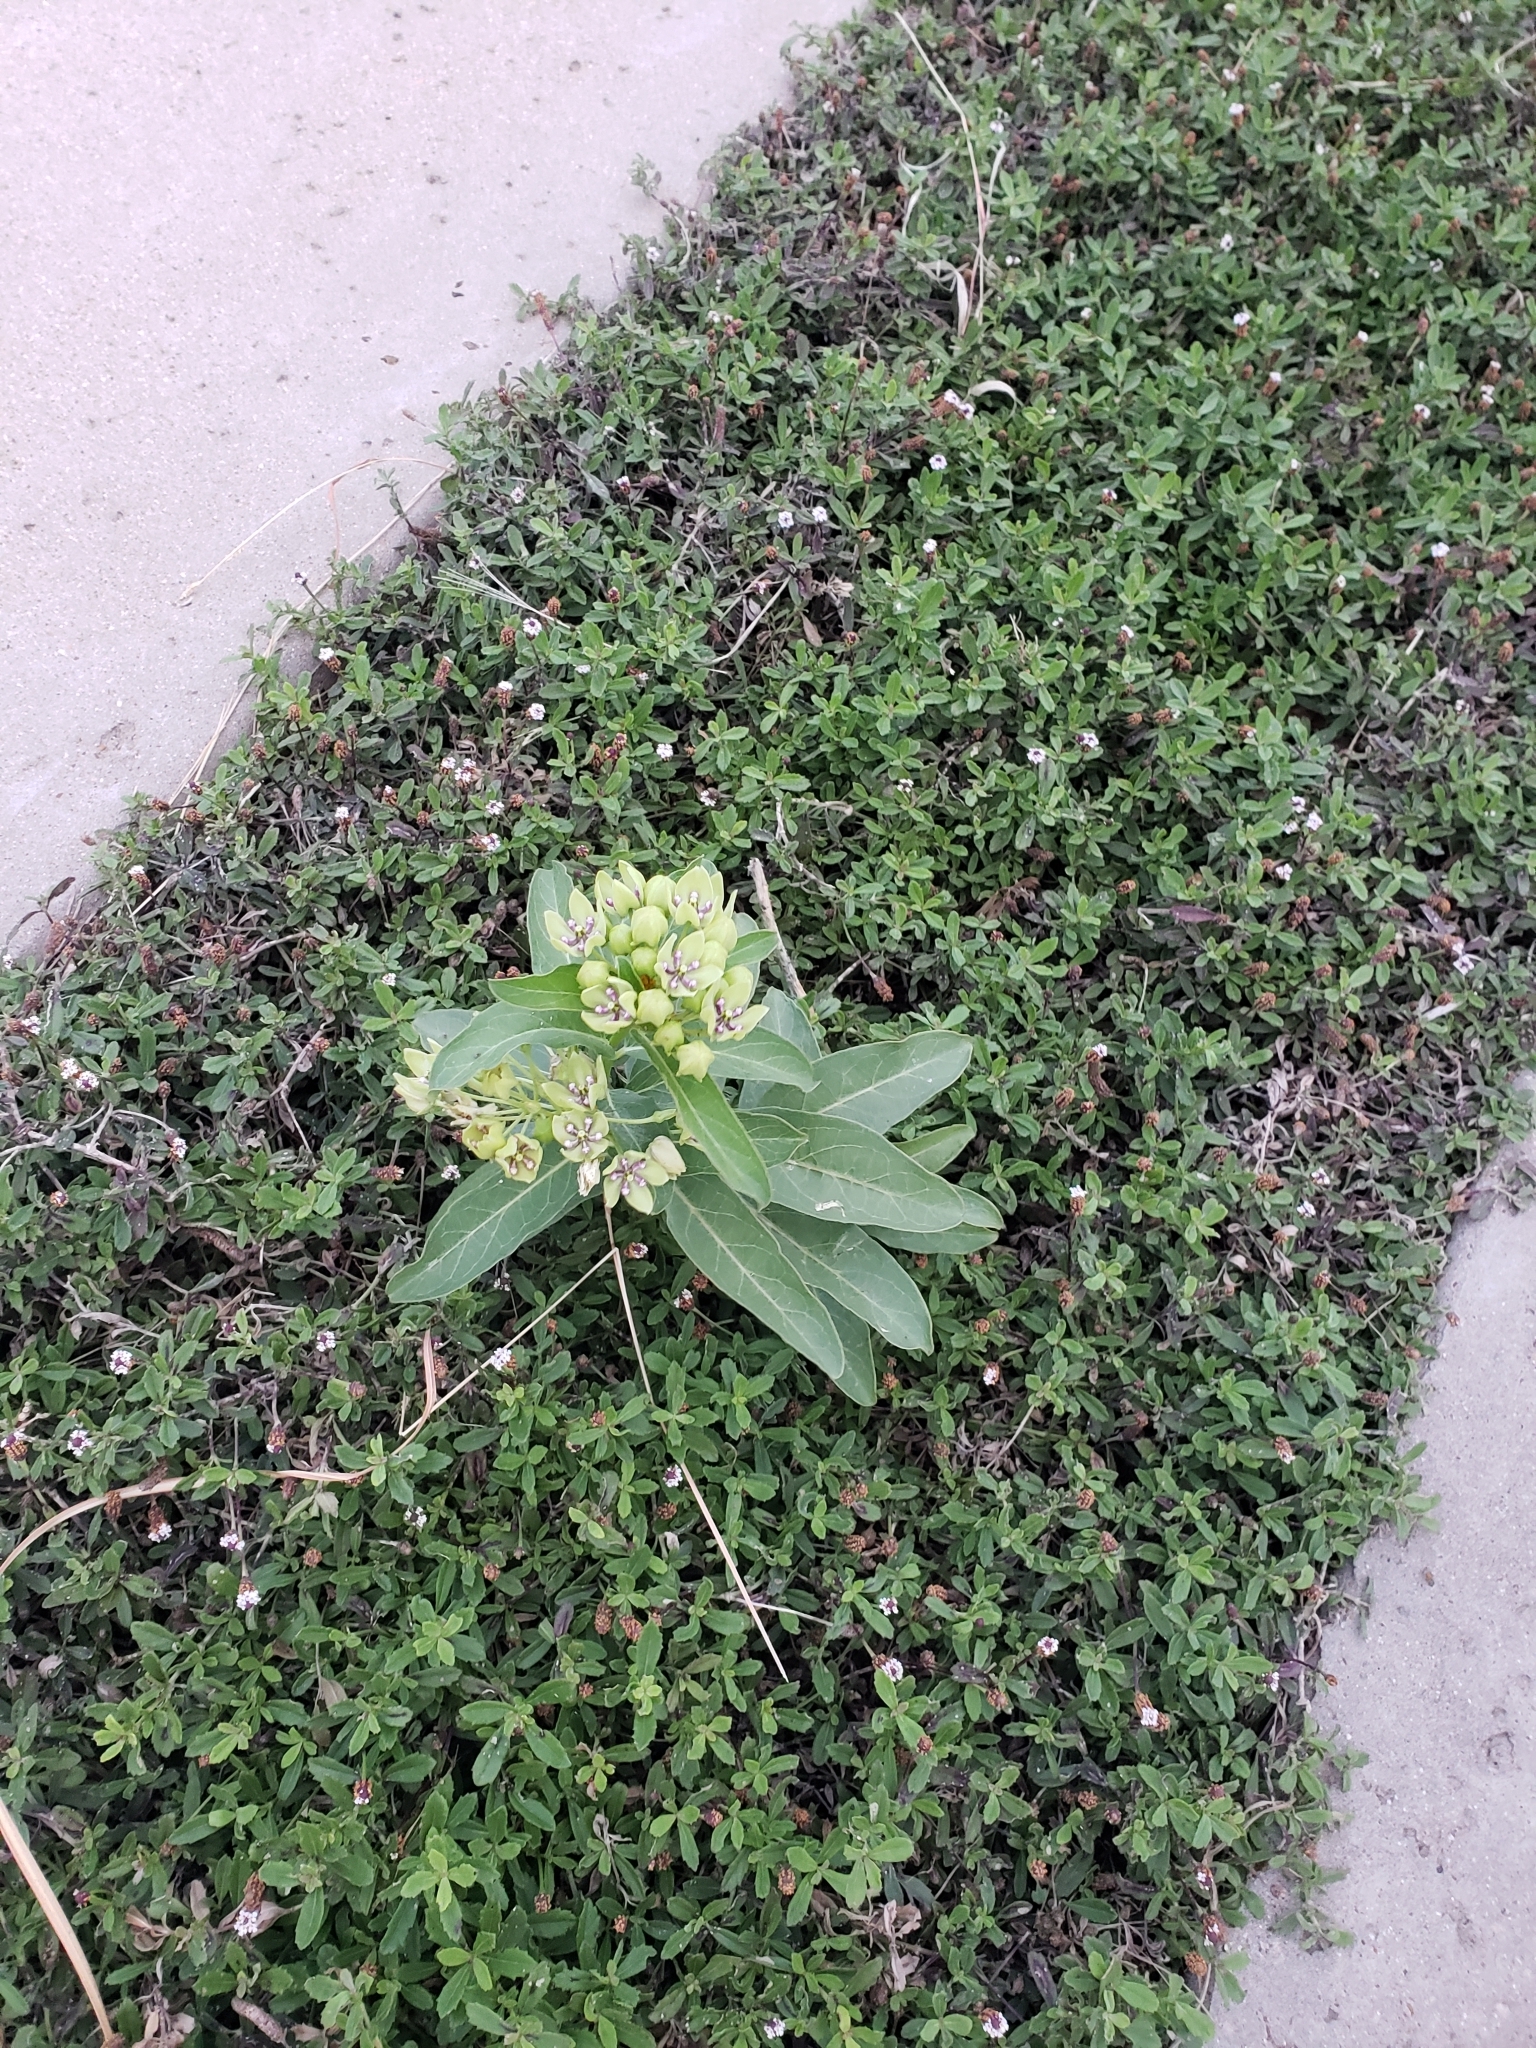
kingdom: Plantae
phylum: Tracheophyta
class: Magnoliopsida
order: Gentianales
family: Apocynaceae
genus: Asclepias
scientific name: Asclepias viridis
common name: Antelope-horns
